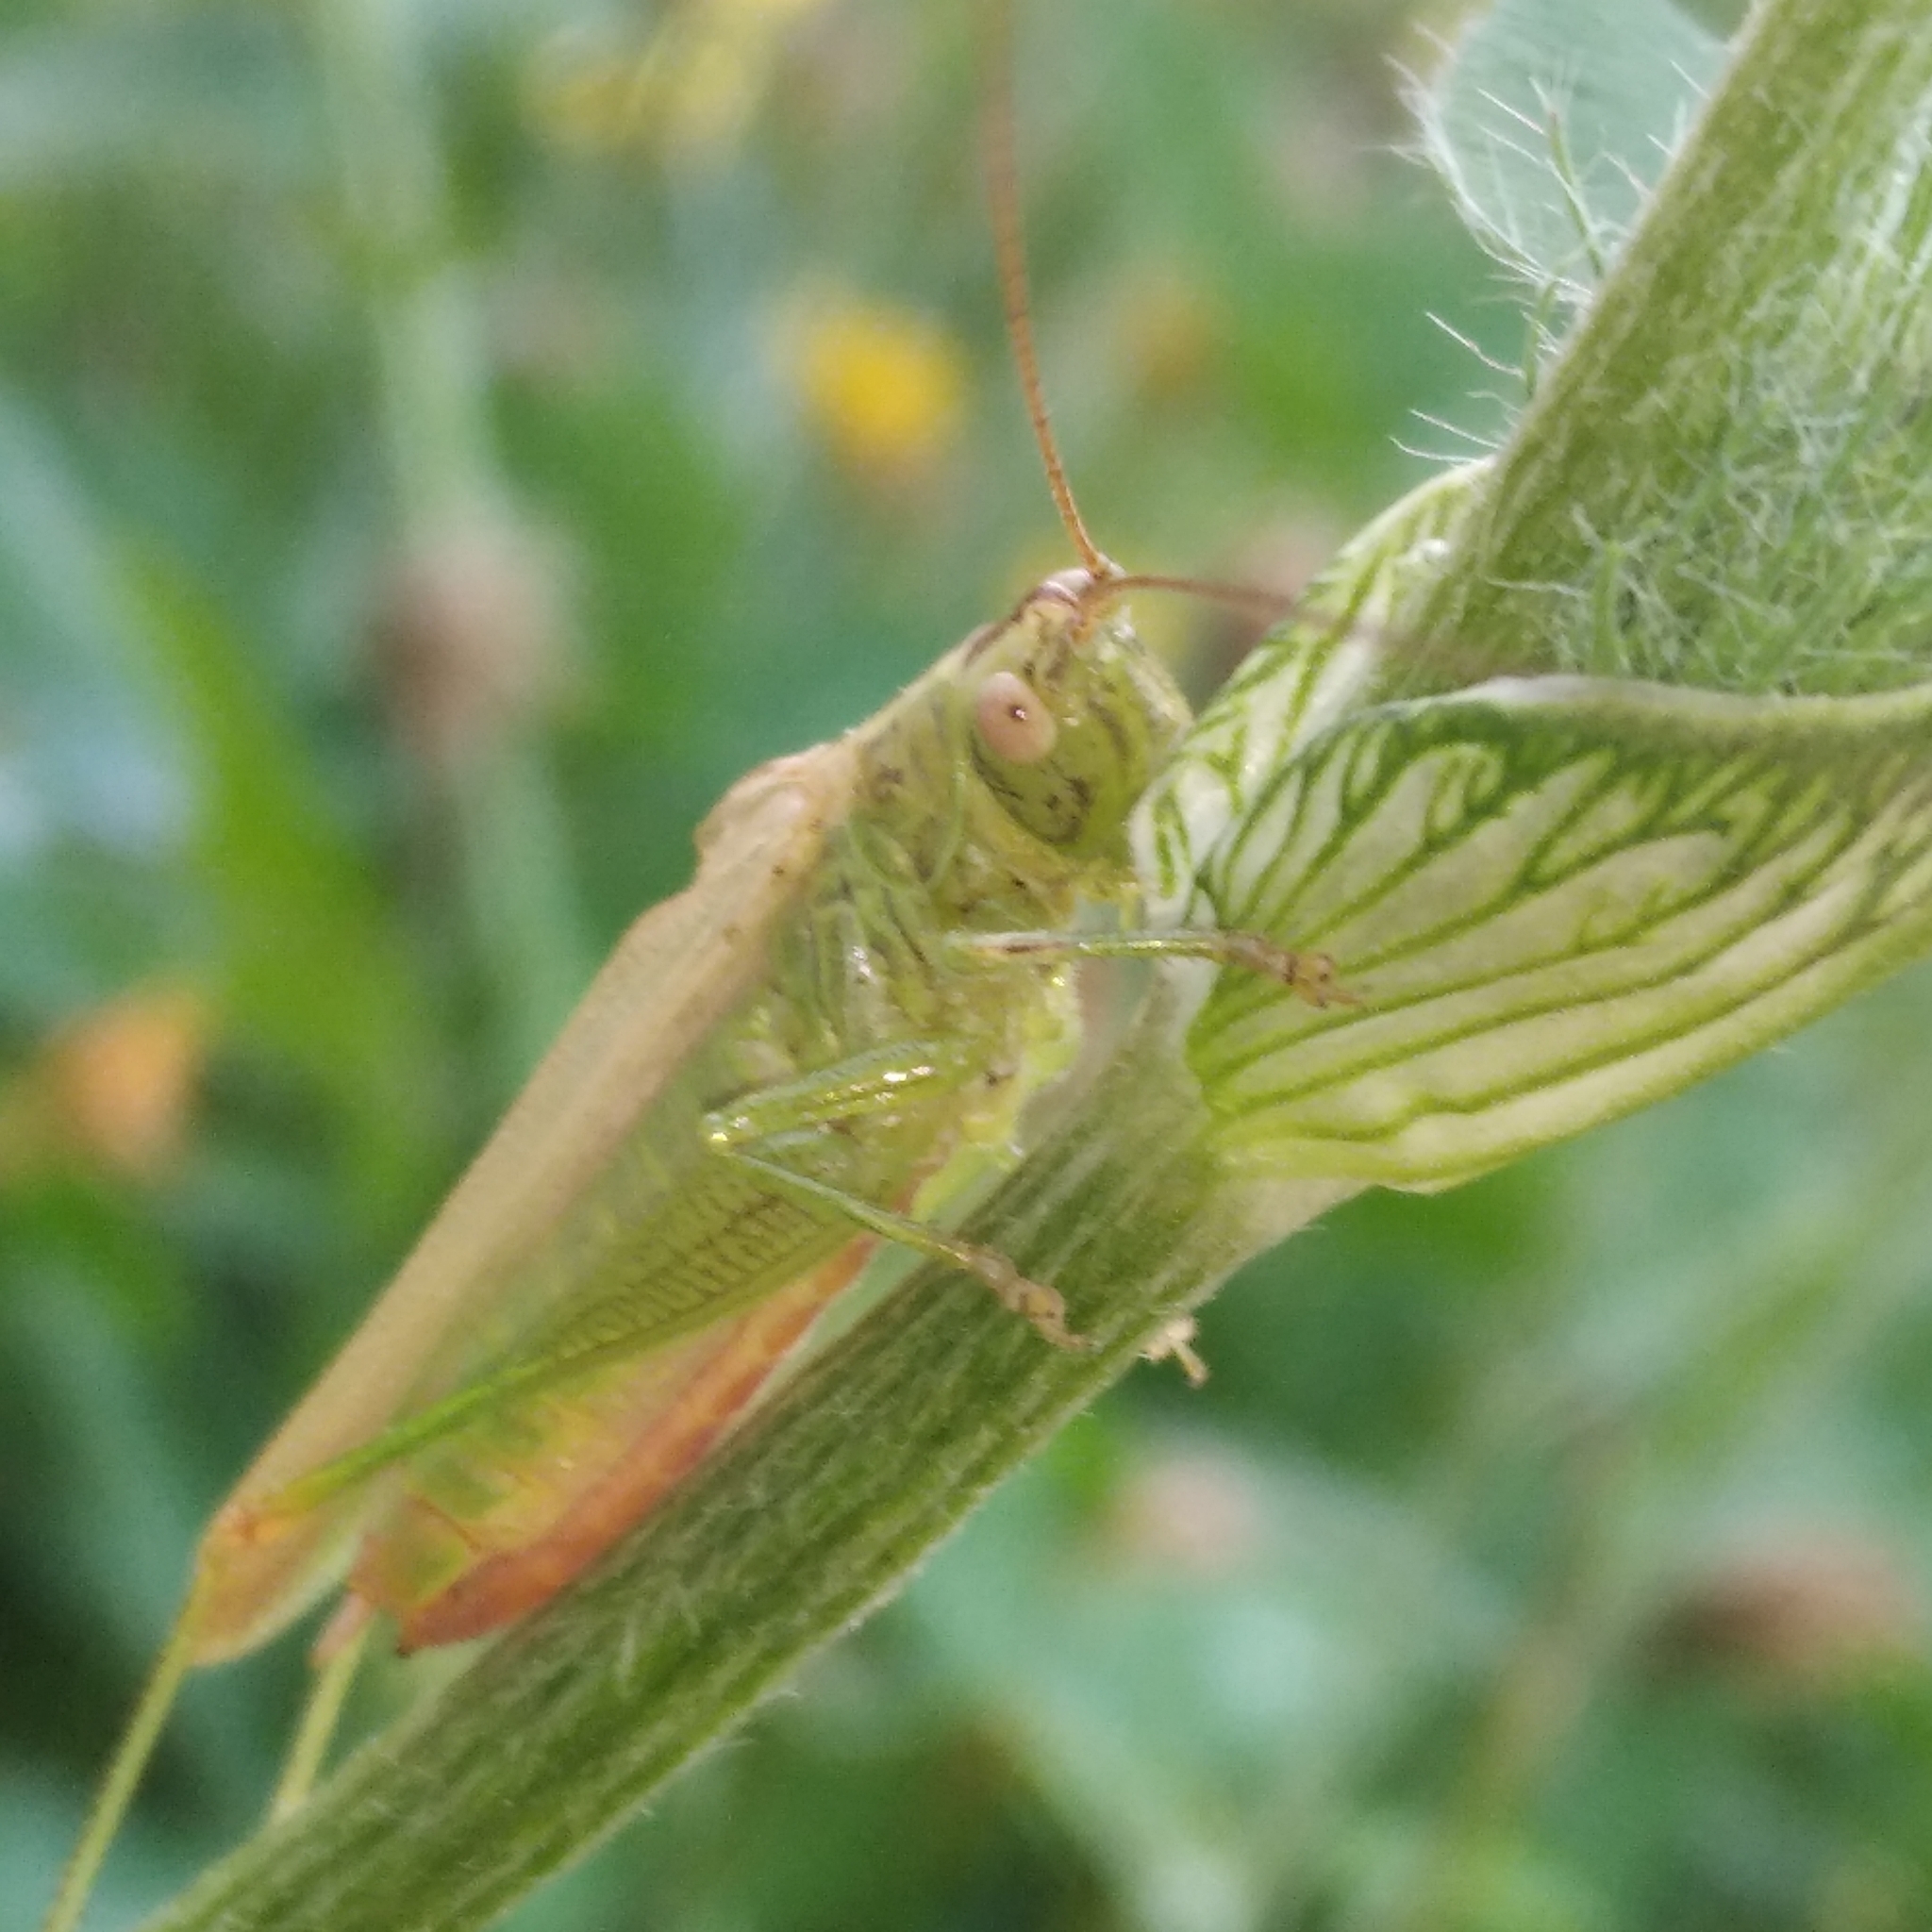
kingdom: Animalia
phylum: Arthropoda
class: Insecta
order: Orthoptera
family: Tettigoniidae
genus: Conocephalus
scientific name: Conocephalus fuscus
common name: Long-winged conehead
